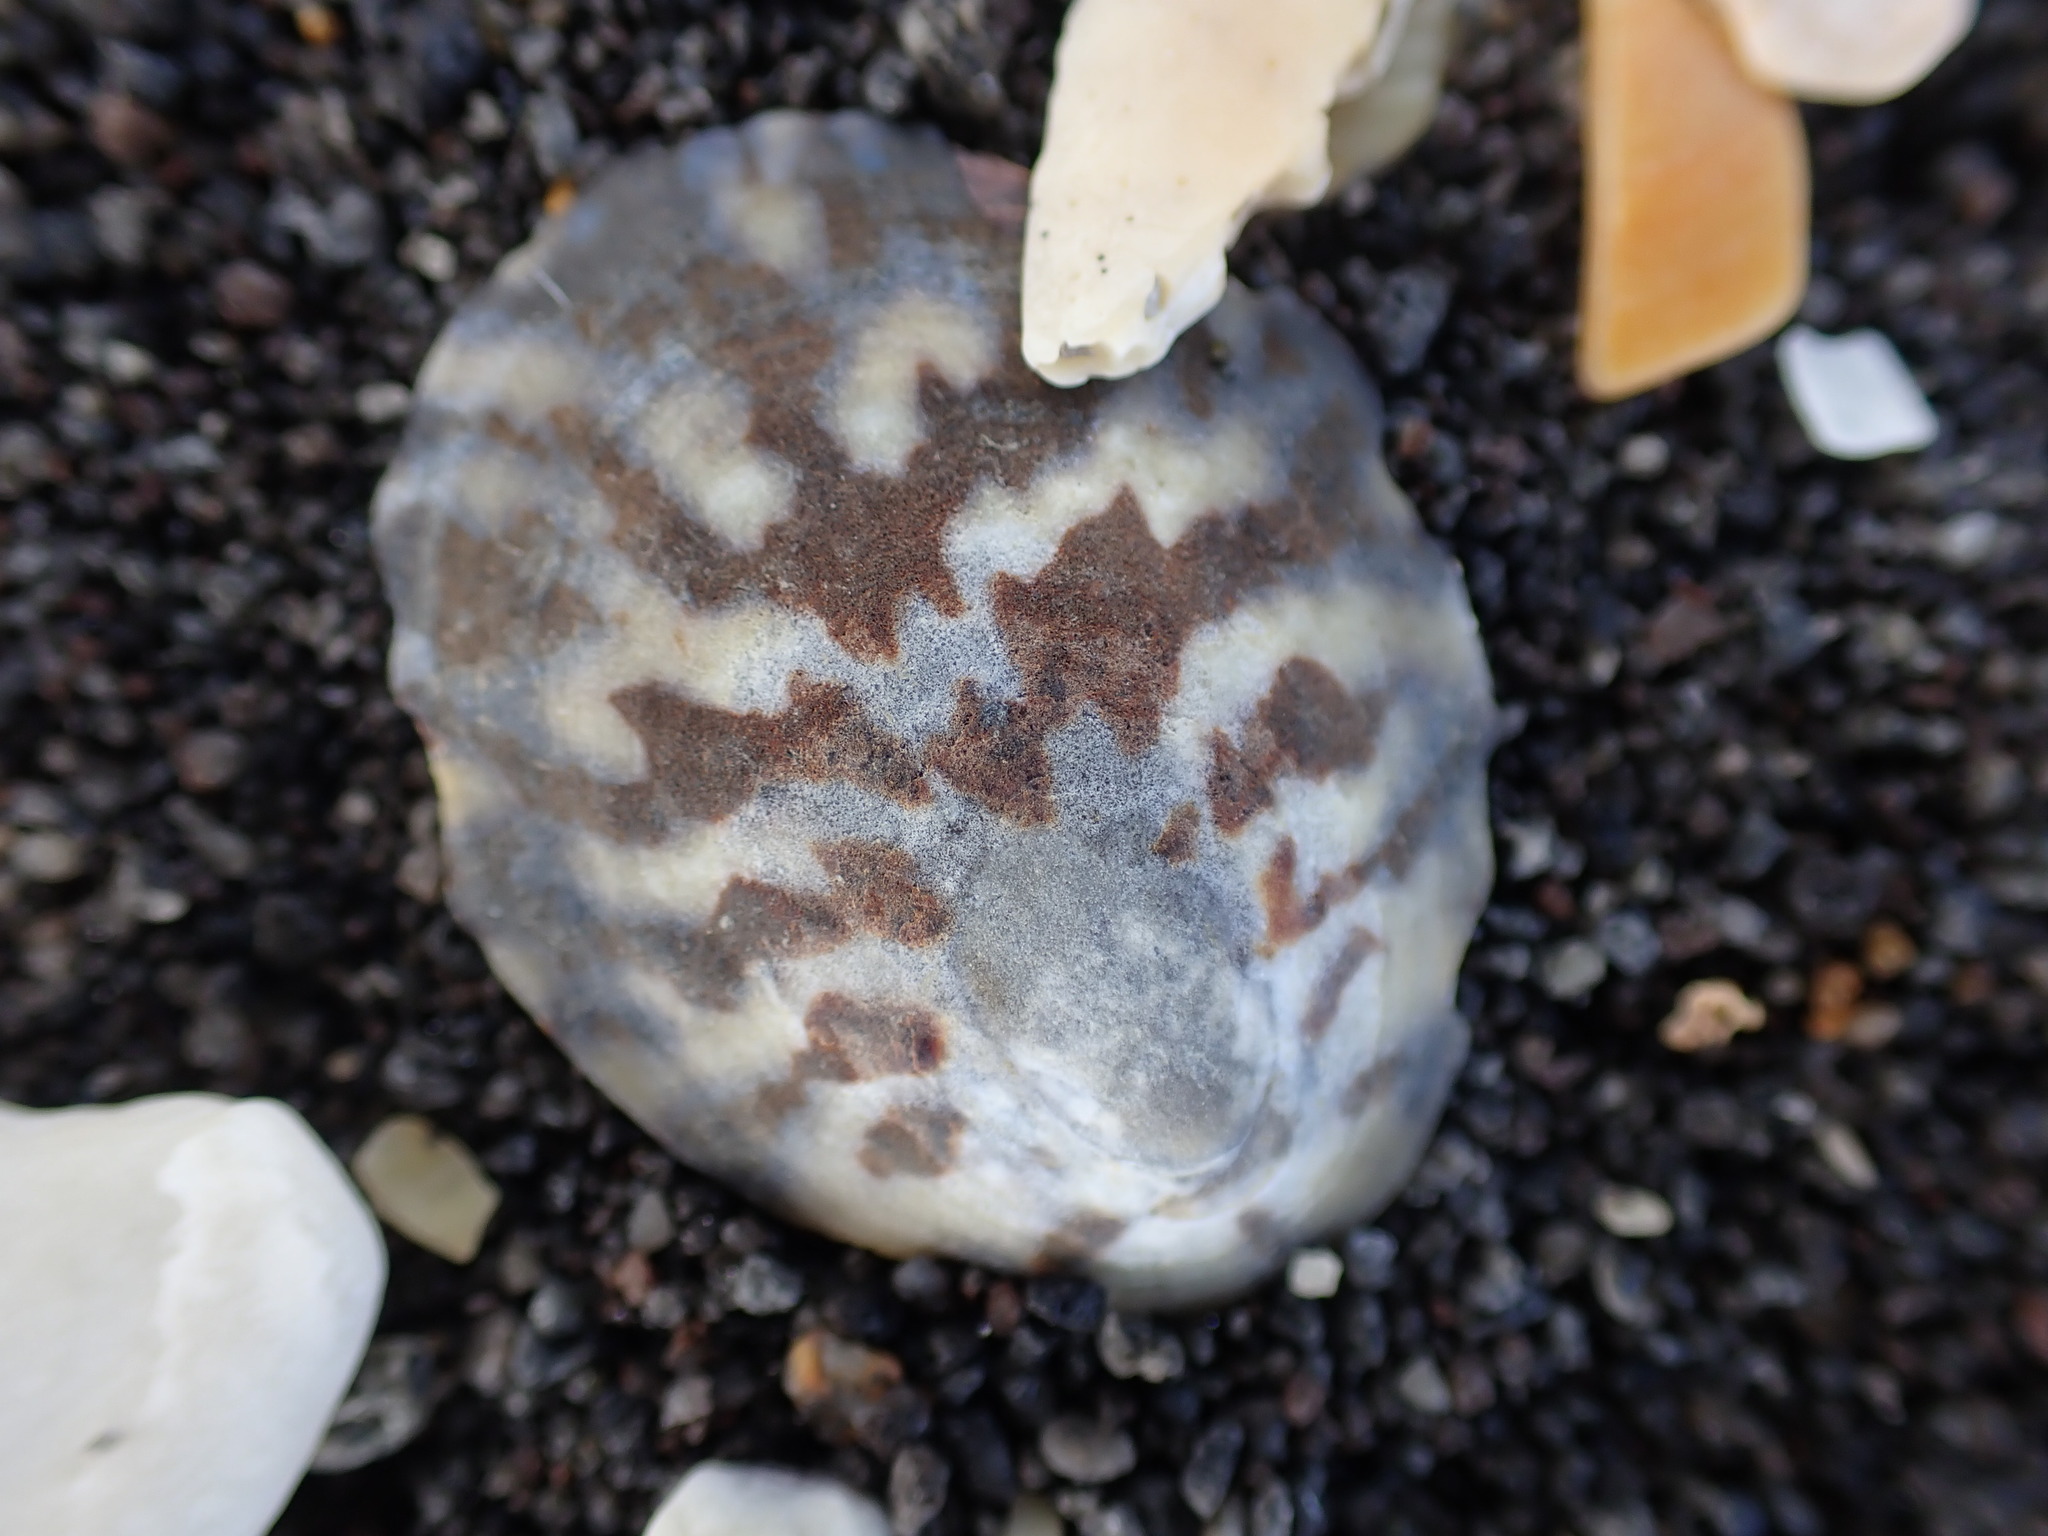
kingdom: Animalia
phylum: Mollusca
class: Gastropoda
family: Nacellidae
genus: Cellana
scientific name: Cellana radians
